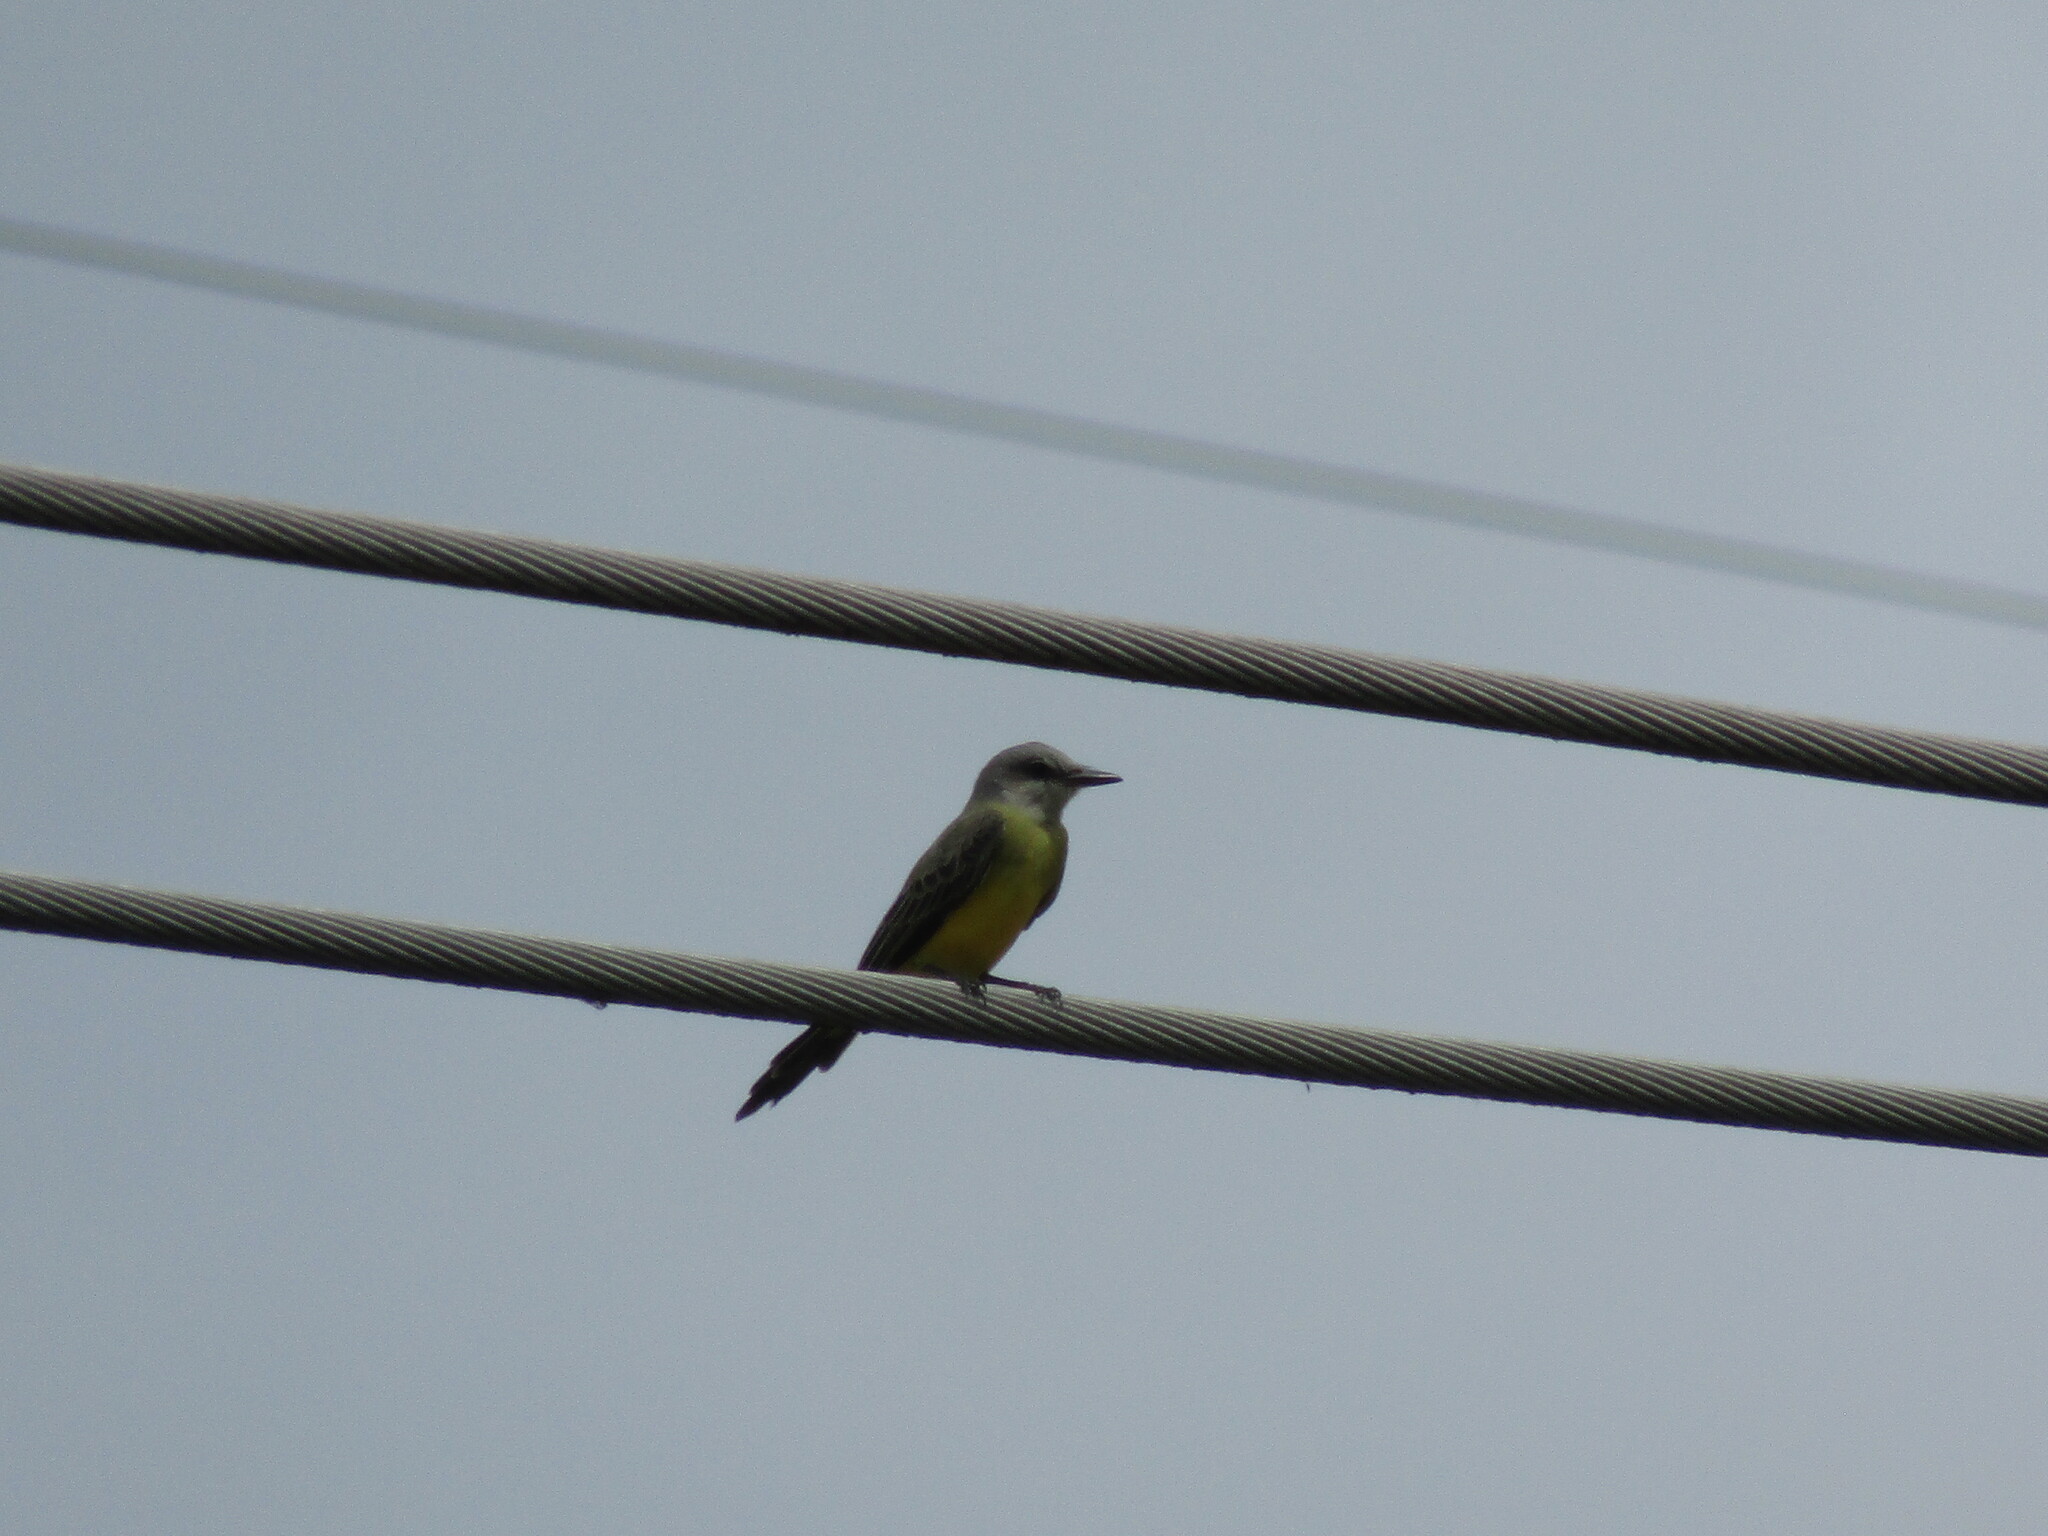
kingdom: Animalia
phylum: Chordata
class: Aves
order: Passeriformes
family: Tyrannidae
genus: Tyrannus
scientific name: Tyrannus melancholicus
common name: Tropical kingbird
